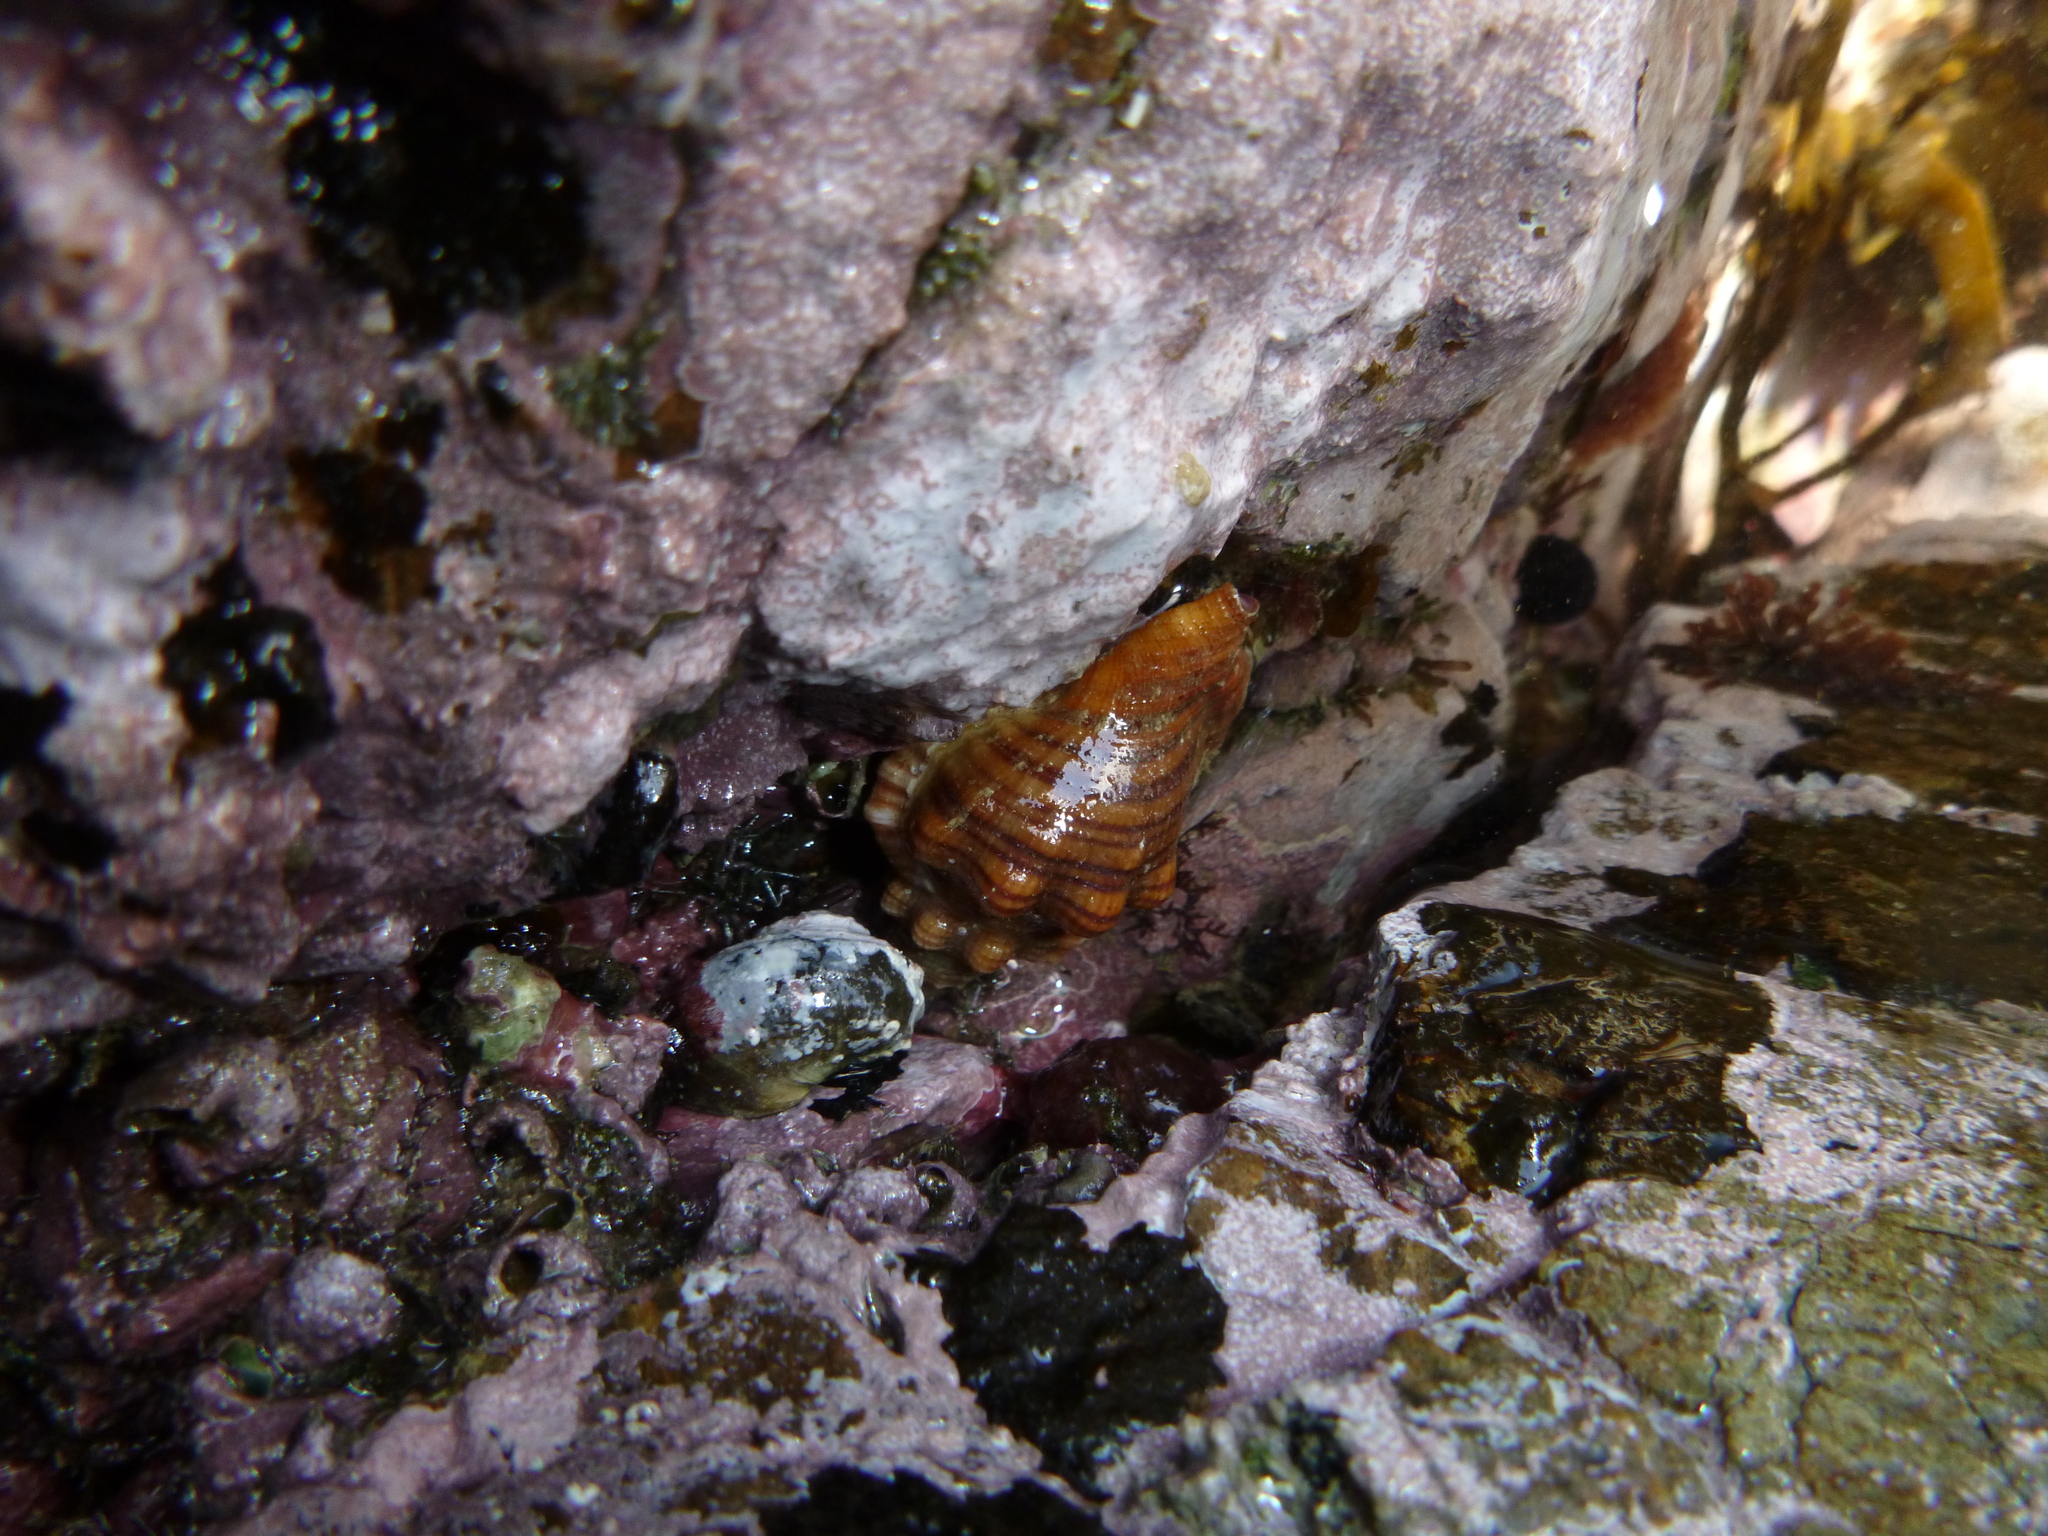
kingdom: Animalia
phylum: Mollusca
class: Gastropoda
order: Littorinimorpha
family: Cymatiidae
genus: Cabestana
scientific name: Cabestana spengleri
